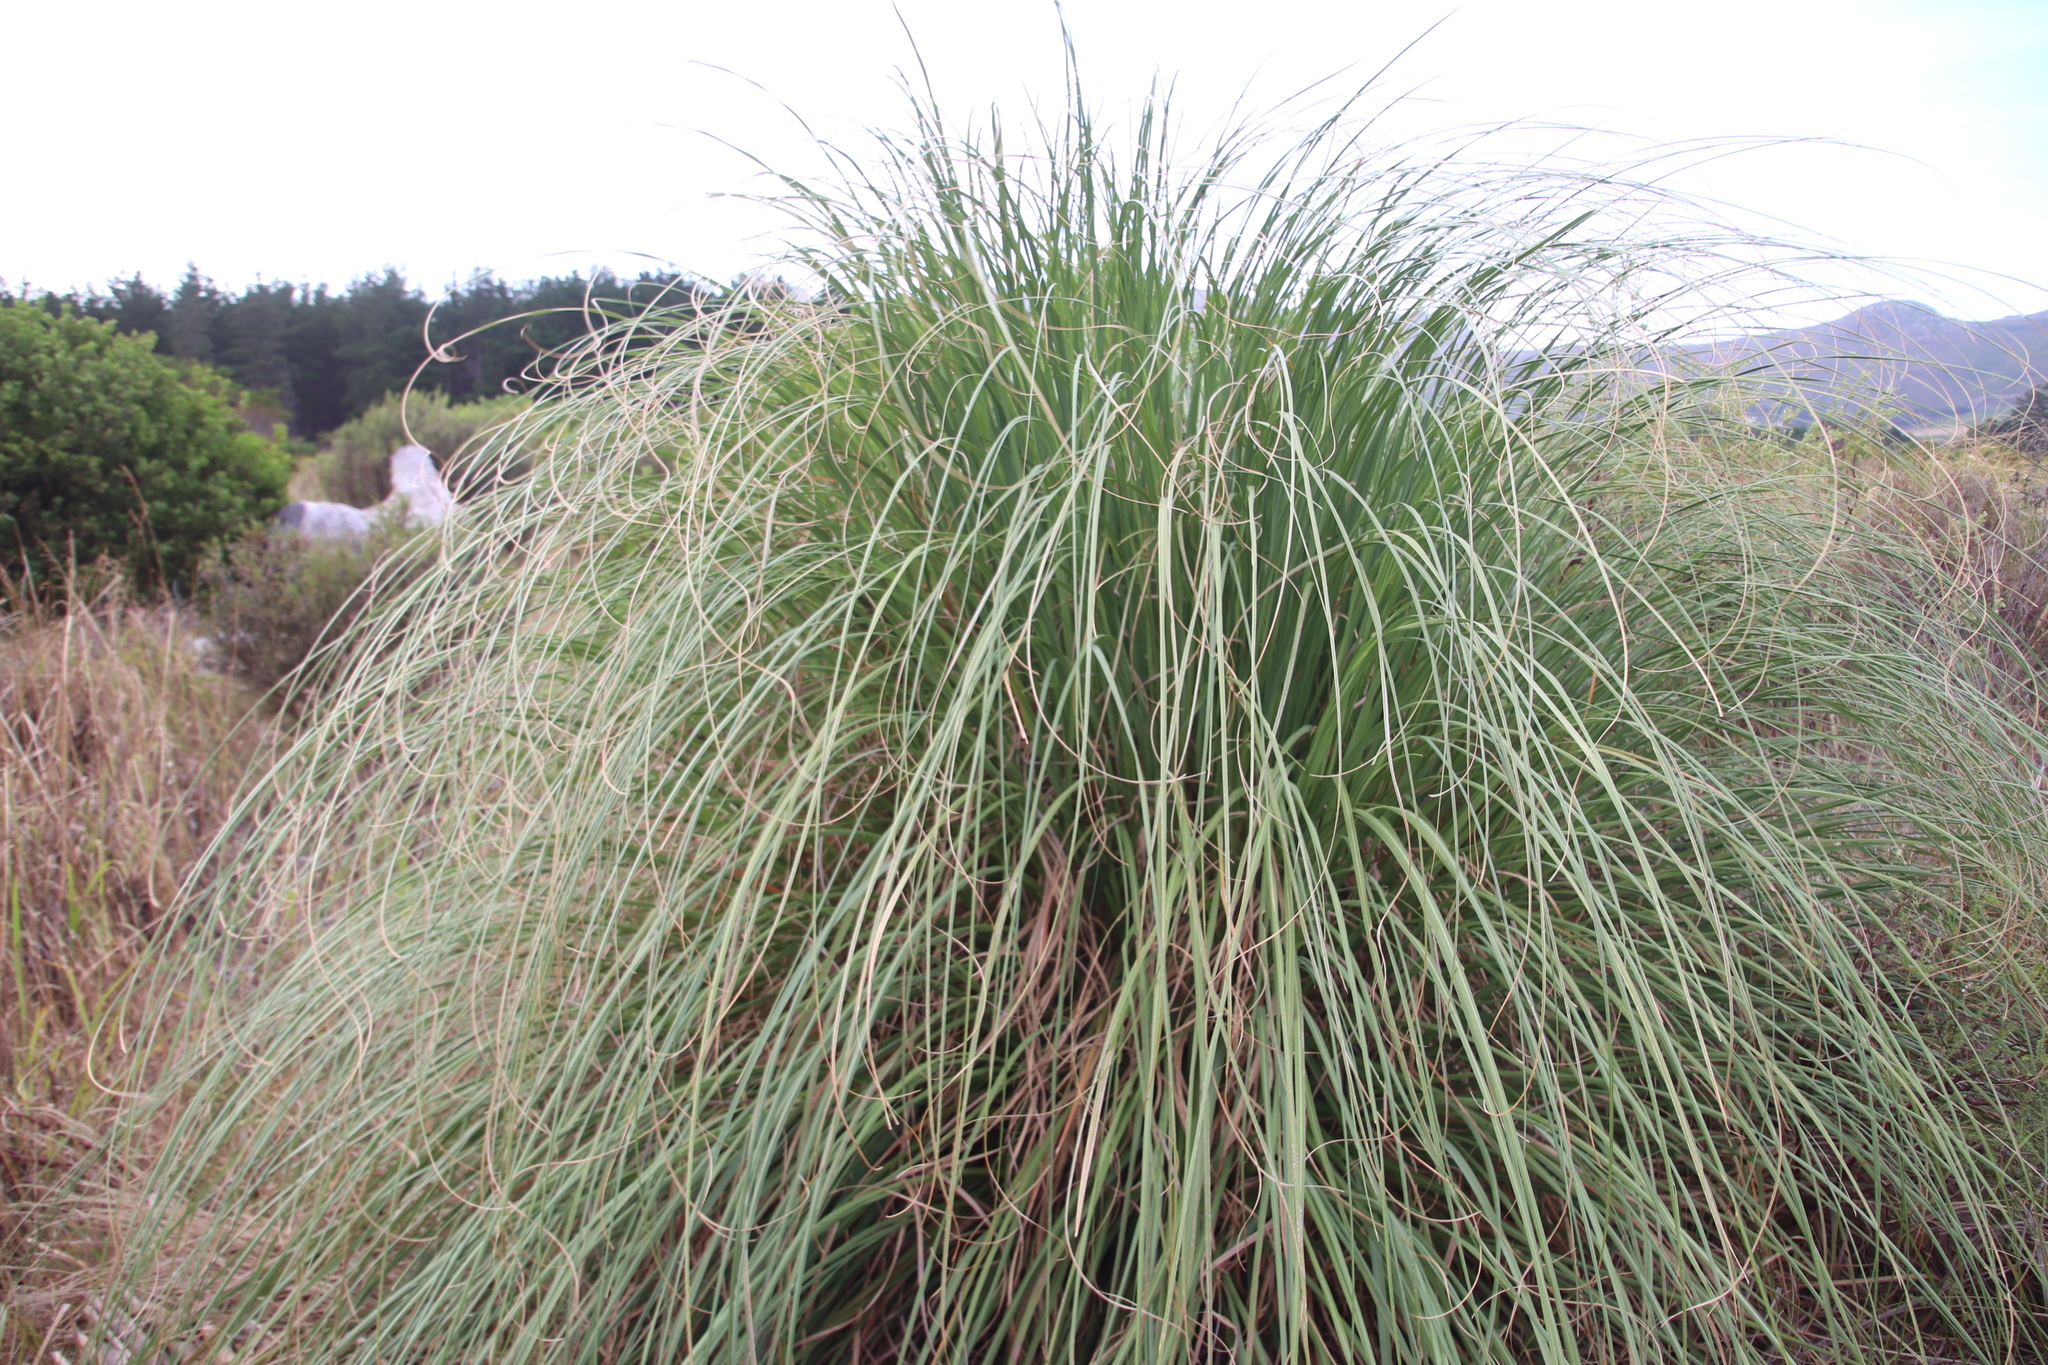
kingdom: Plantae
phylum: Tracheophyta
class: Liliopsida
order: Poales
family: Poaceae
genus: Cortaderia
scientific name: Cortaderia selloana
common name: Uruguayan pampas grass
